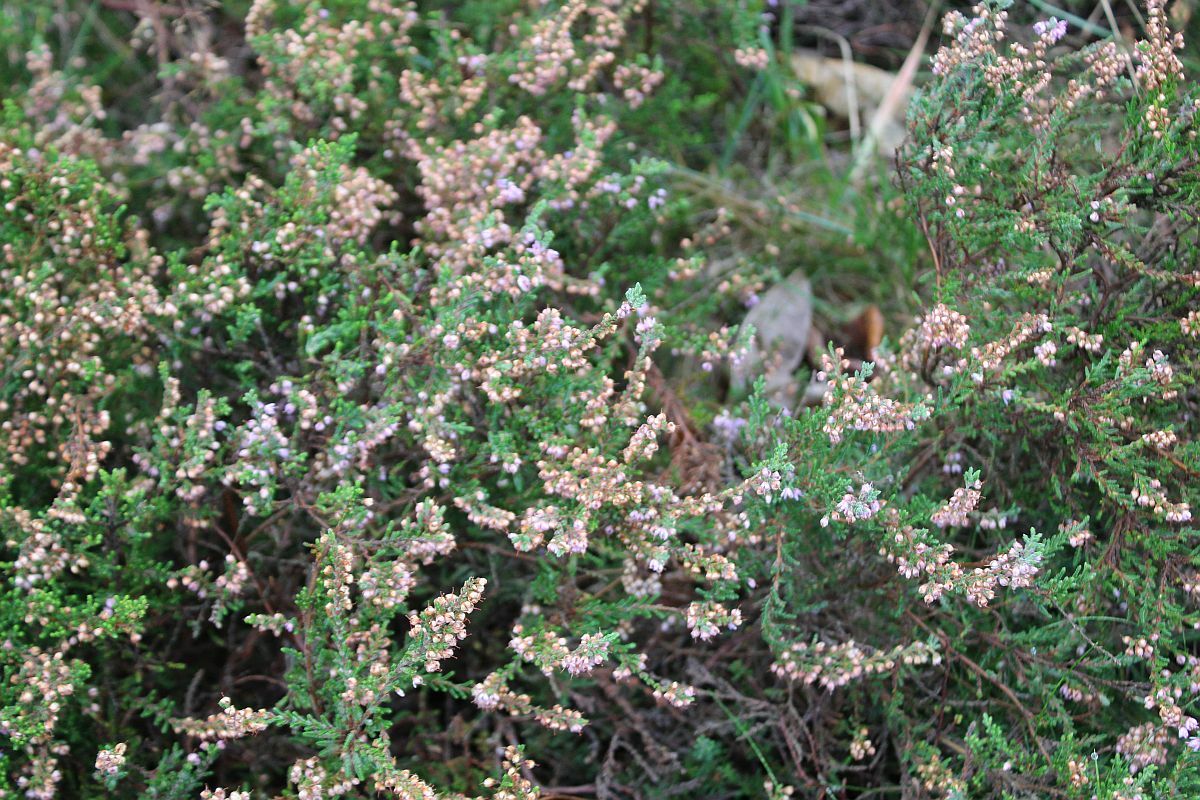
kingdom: Plantae
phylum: Tracheophyta
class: Magnoliopsida
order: Ericales
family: Ericaceae
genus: Calluna
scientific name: Calluna vulgaris
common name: Heather
